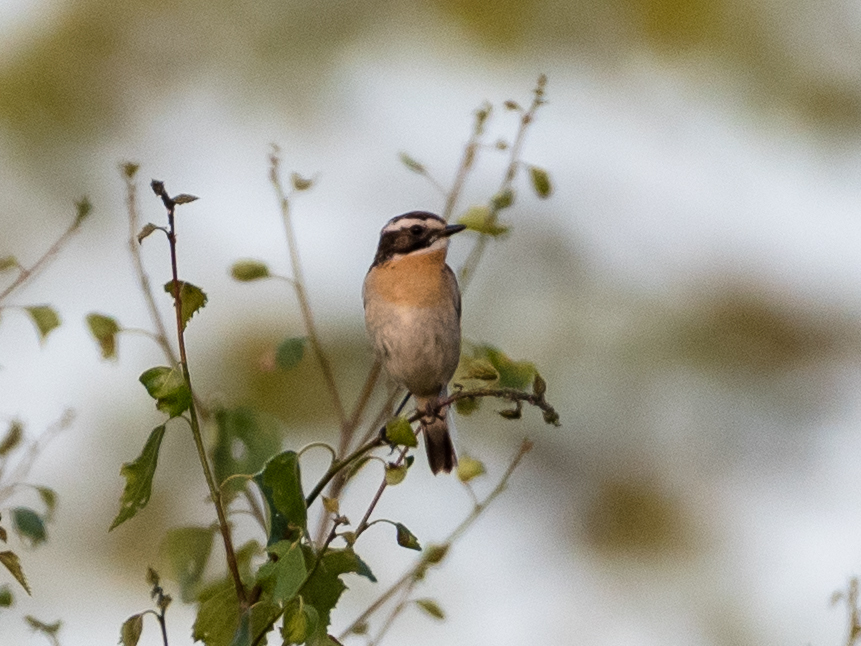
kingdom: Animalia
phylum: Chordata
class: Aves
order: Passeriformes
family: Muscicapidae
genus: Saxicola
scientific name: Saxicola rubetra
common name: Whinchat
